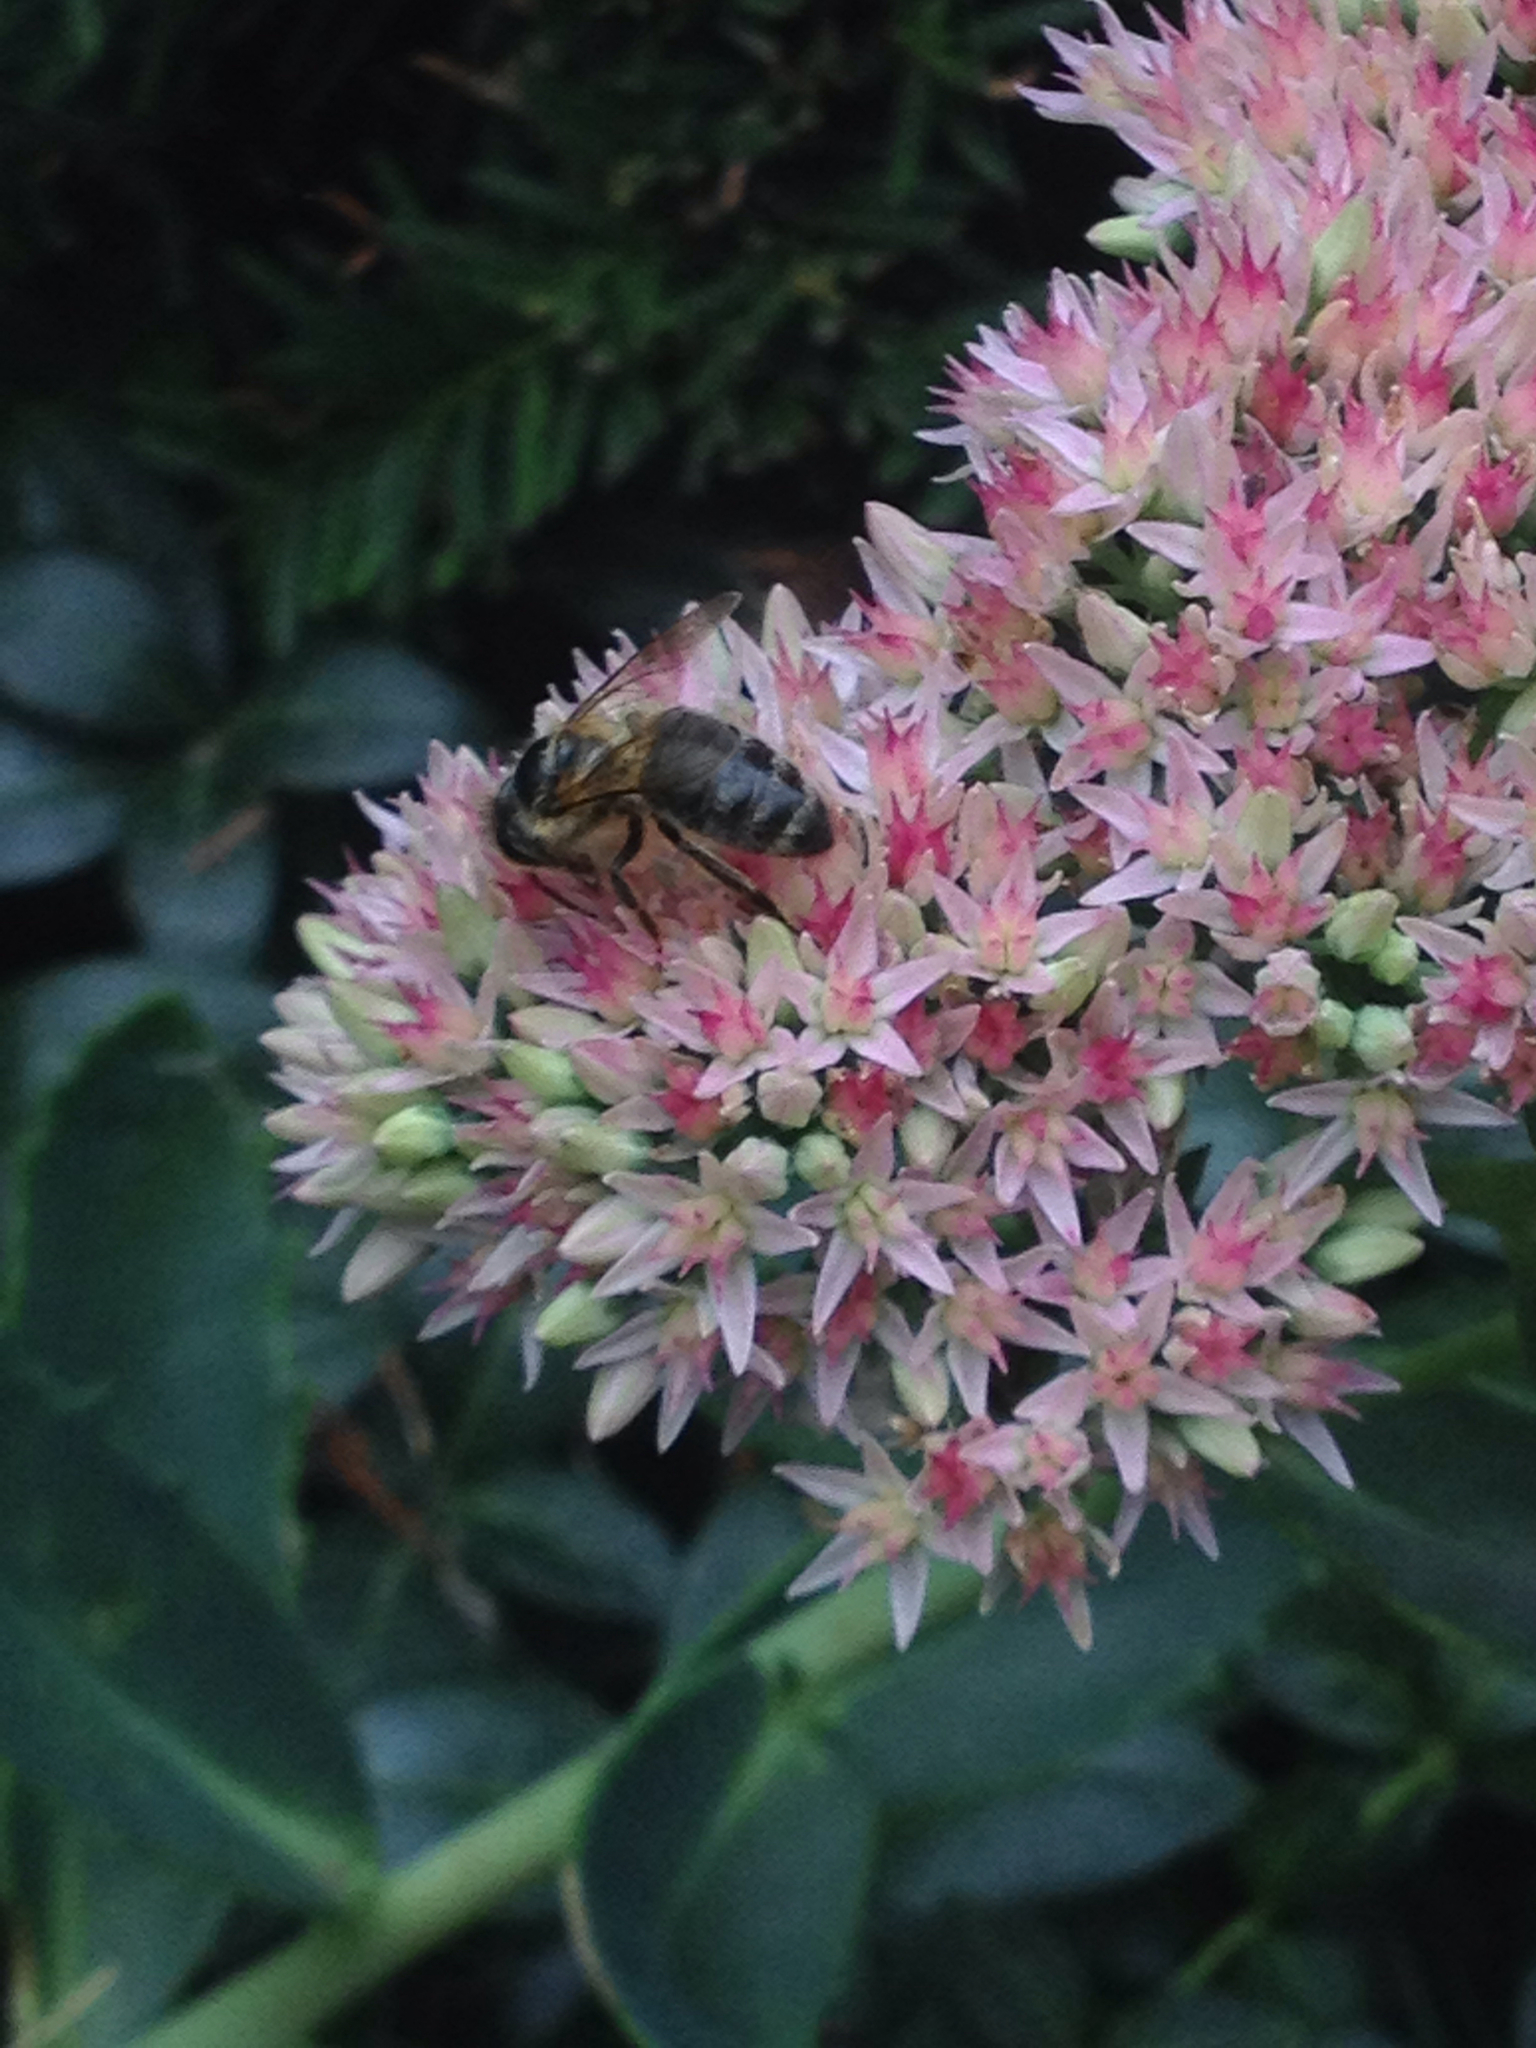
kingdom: Animalia
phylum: Arthropoda
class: Insecta
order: Hymenoptera
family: Apidae
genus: Apis
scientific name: Apis mellifera
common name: Honey bee
